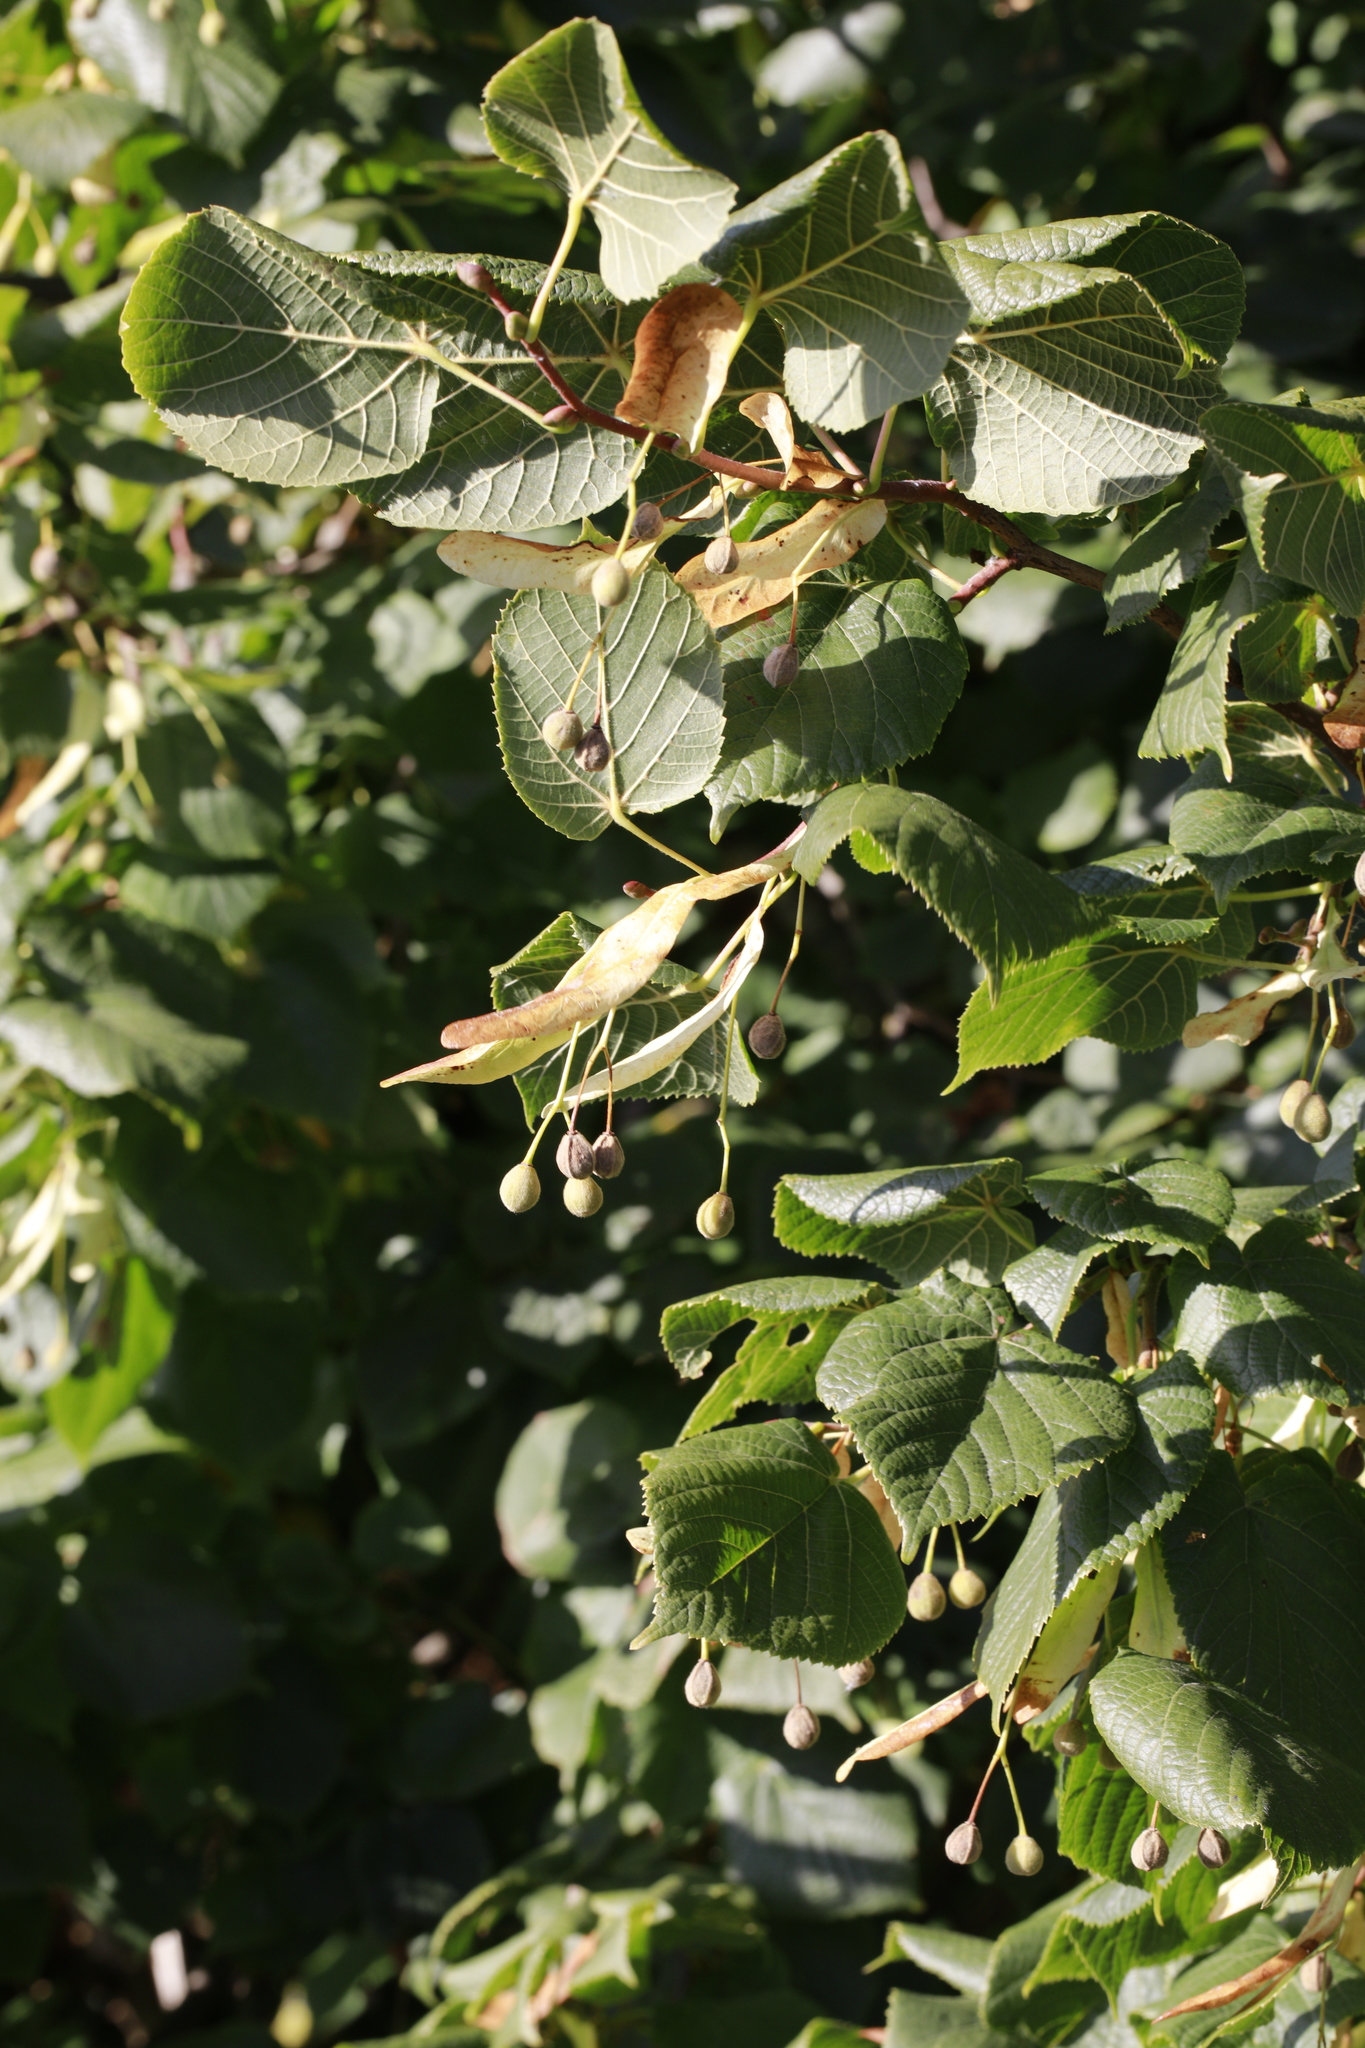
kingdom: Plantae
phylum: Tracheophyta
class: Magnoliopsida
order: Malvales
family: Malvaceae
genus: Tilia
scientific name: Tilia europaea
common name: European linden
